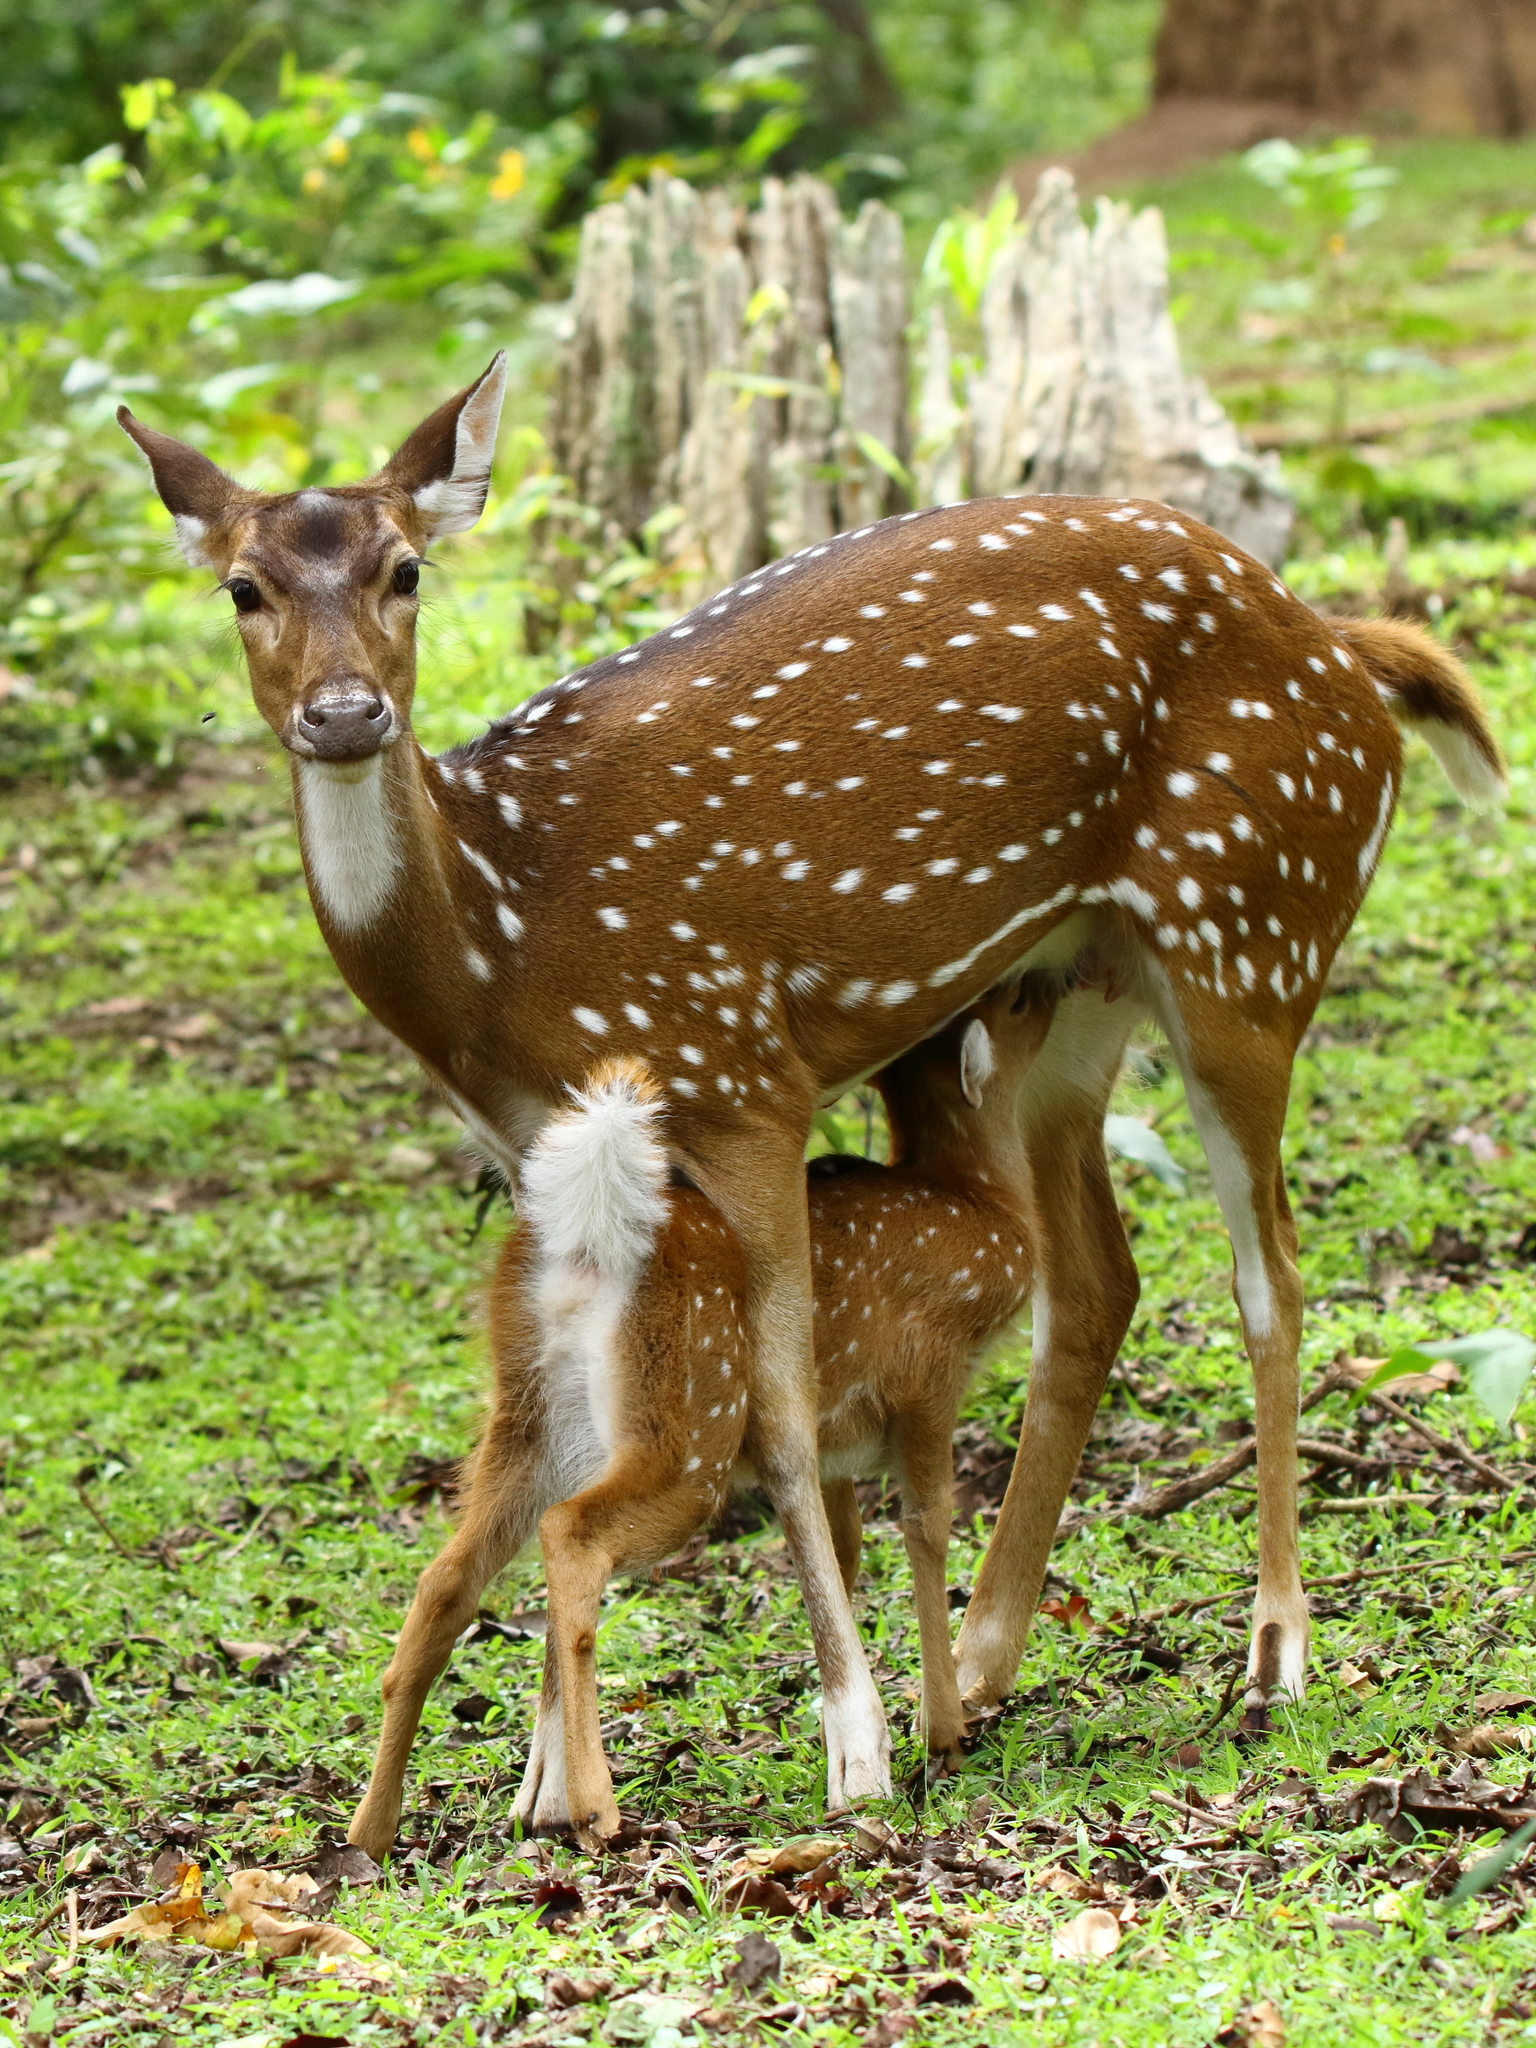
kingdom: Animalia
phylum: Chordata
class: Mammalia
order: Artiodactyla
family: Cervidae
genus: Axis
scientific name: Axis axis
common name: Chital
